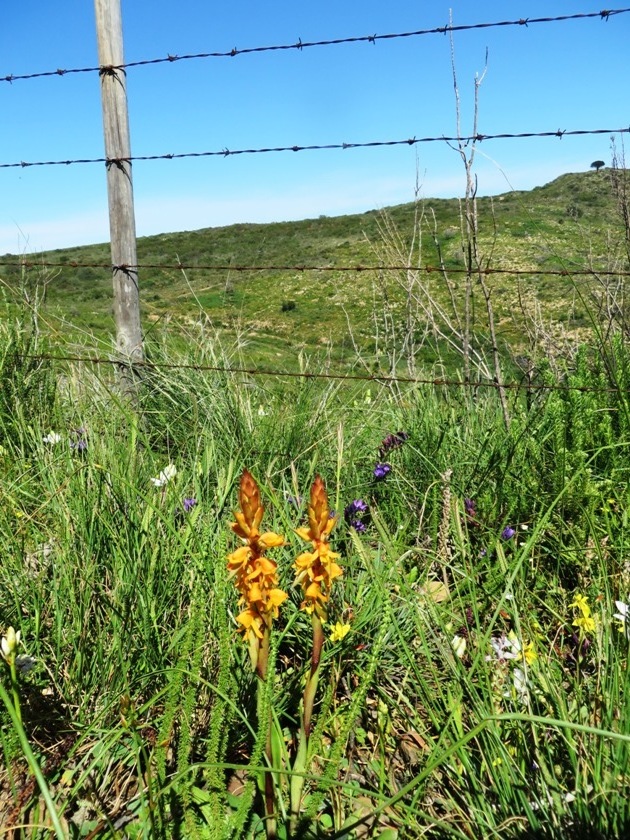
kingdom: Plantae
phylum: Tracheophyta
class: Liliopsida
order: Asparagales
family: Orchidaceae
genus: Satyrium
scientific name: Satyrium coriifolium
